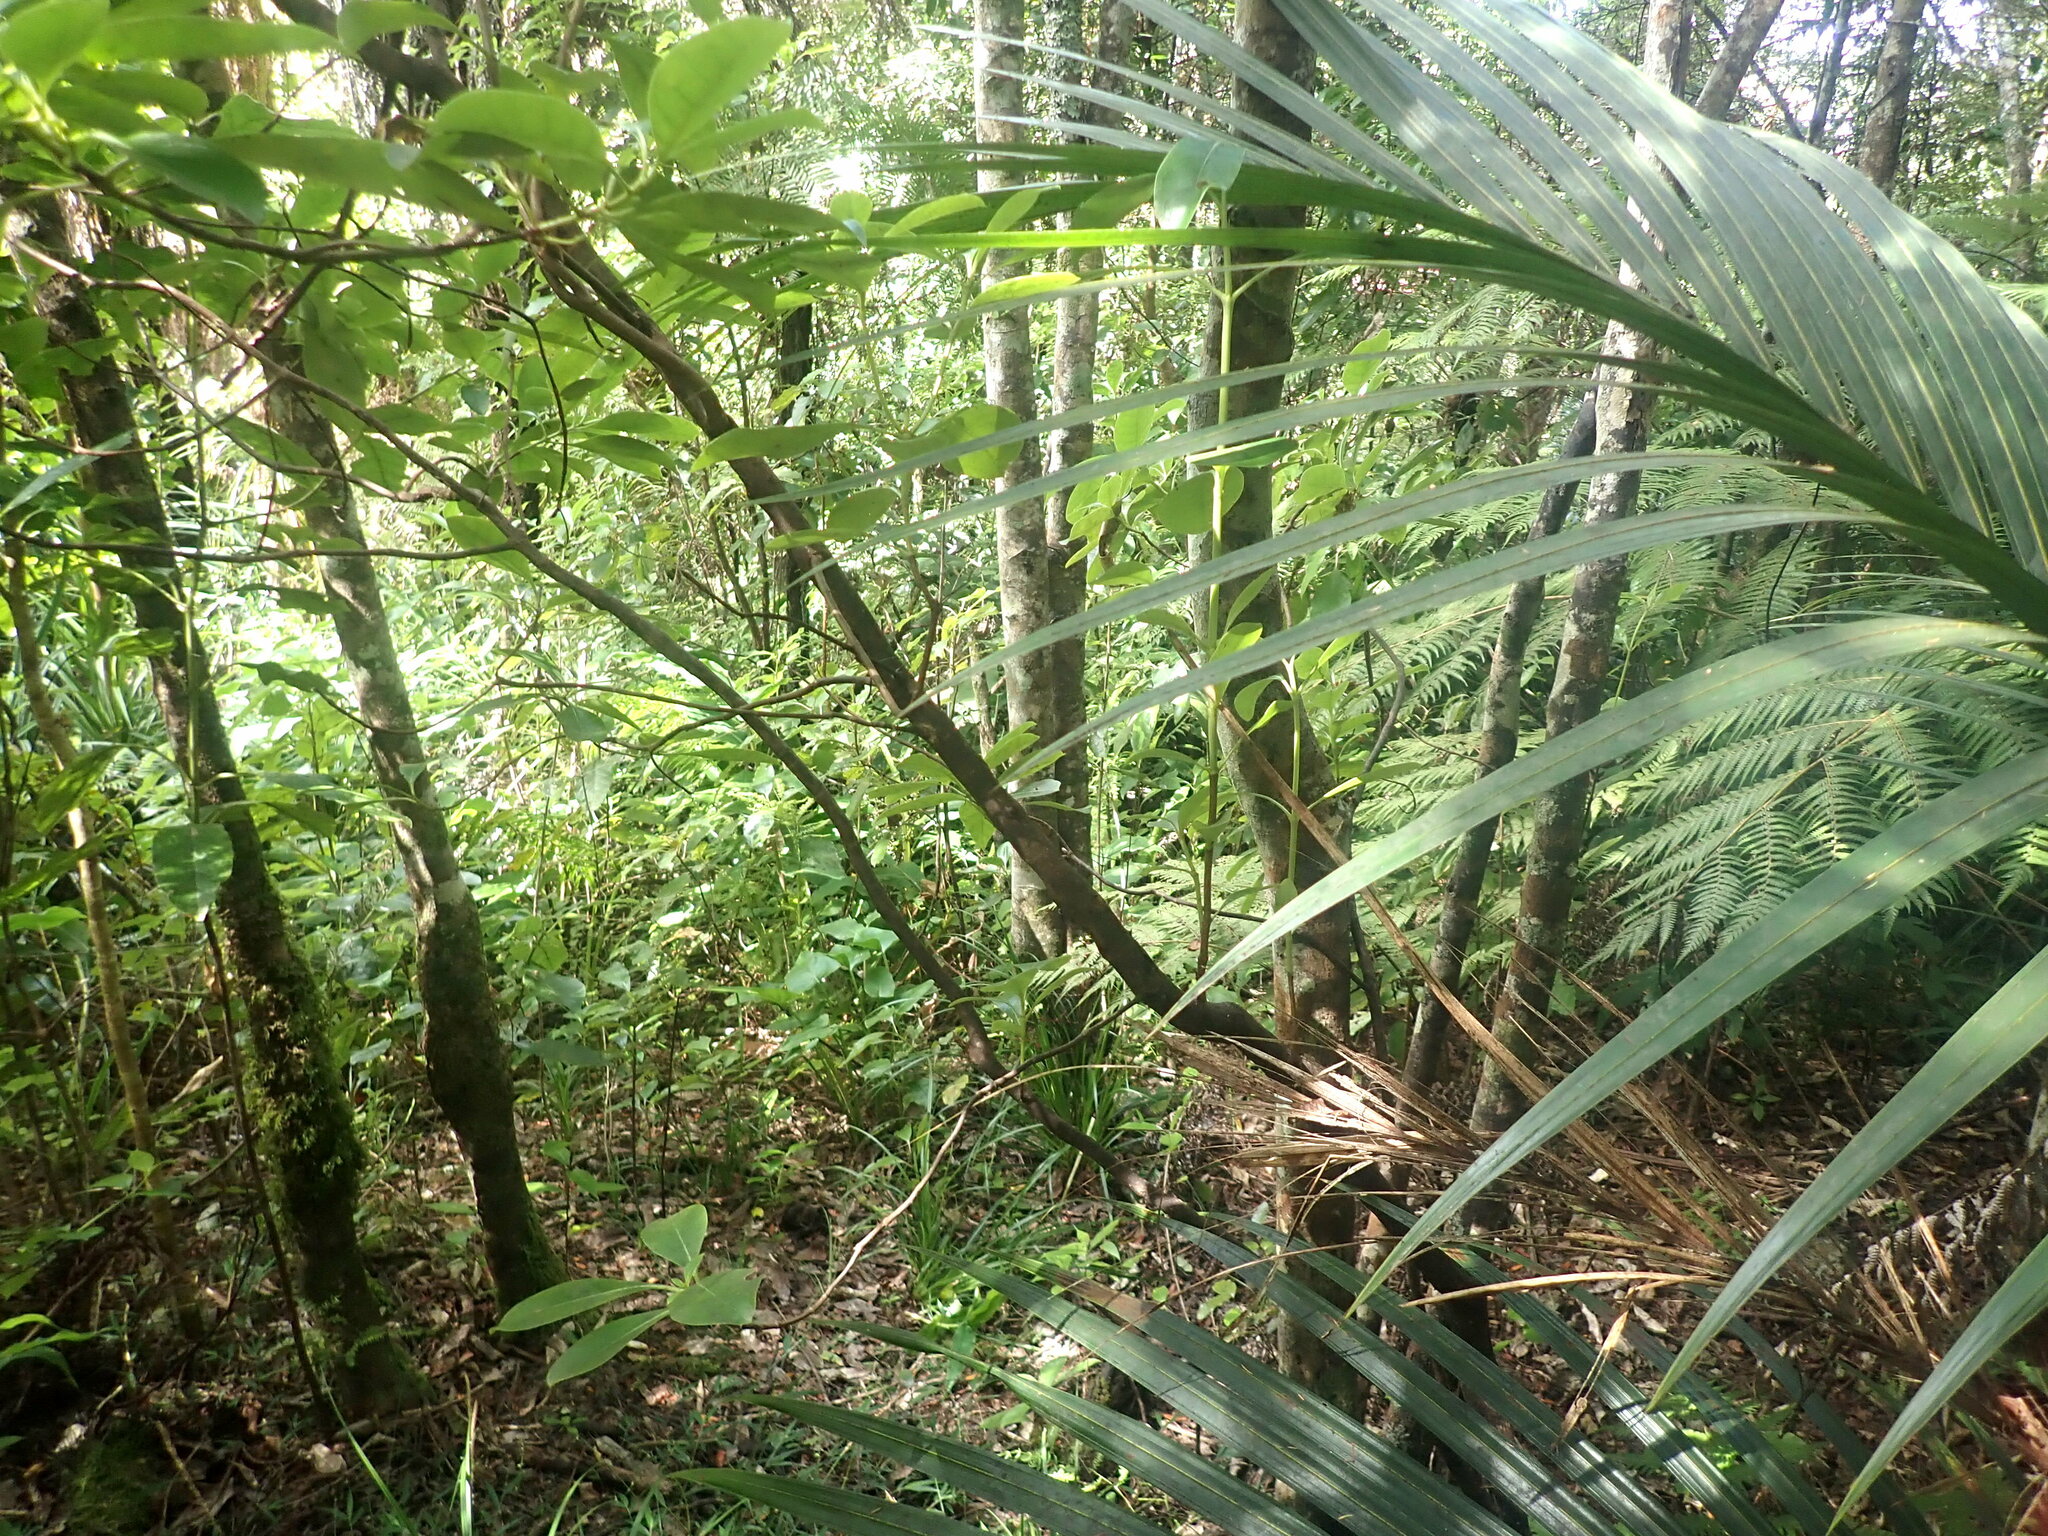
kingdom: Plantae
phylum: Tracheophyta
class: Magnoliopsida
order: Gentianales
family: Rubiaceae
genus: Coprosma
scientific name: Coprosma lucida
